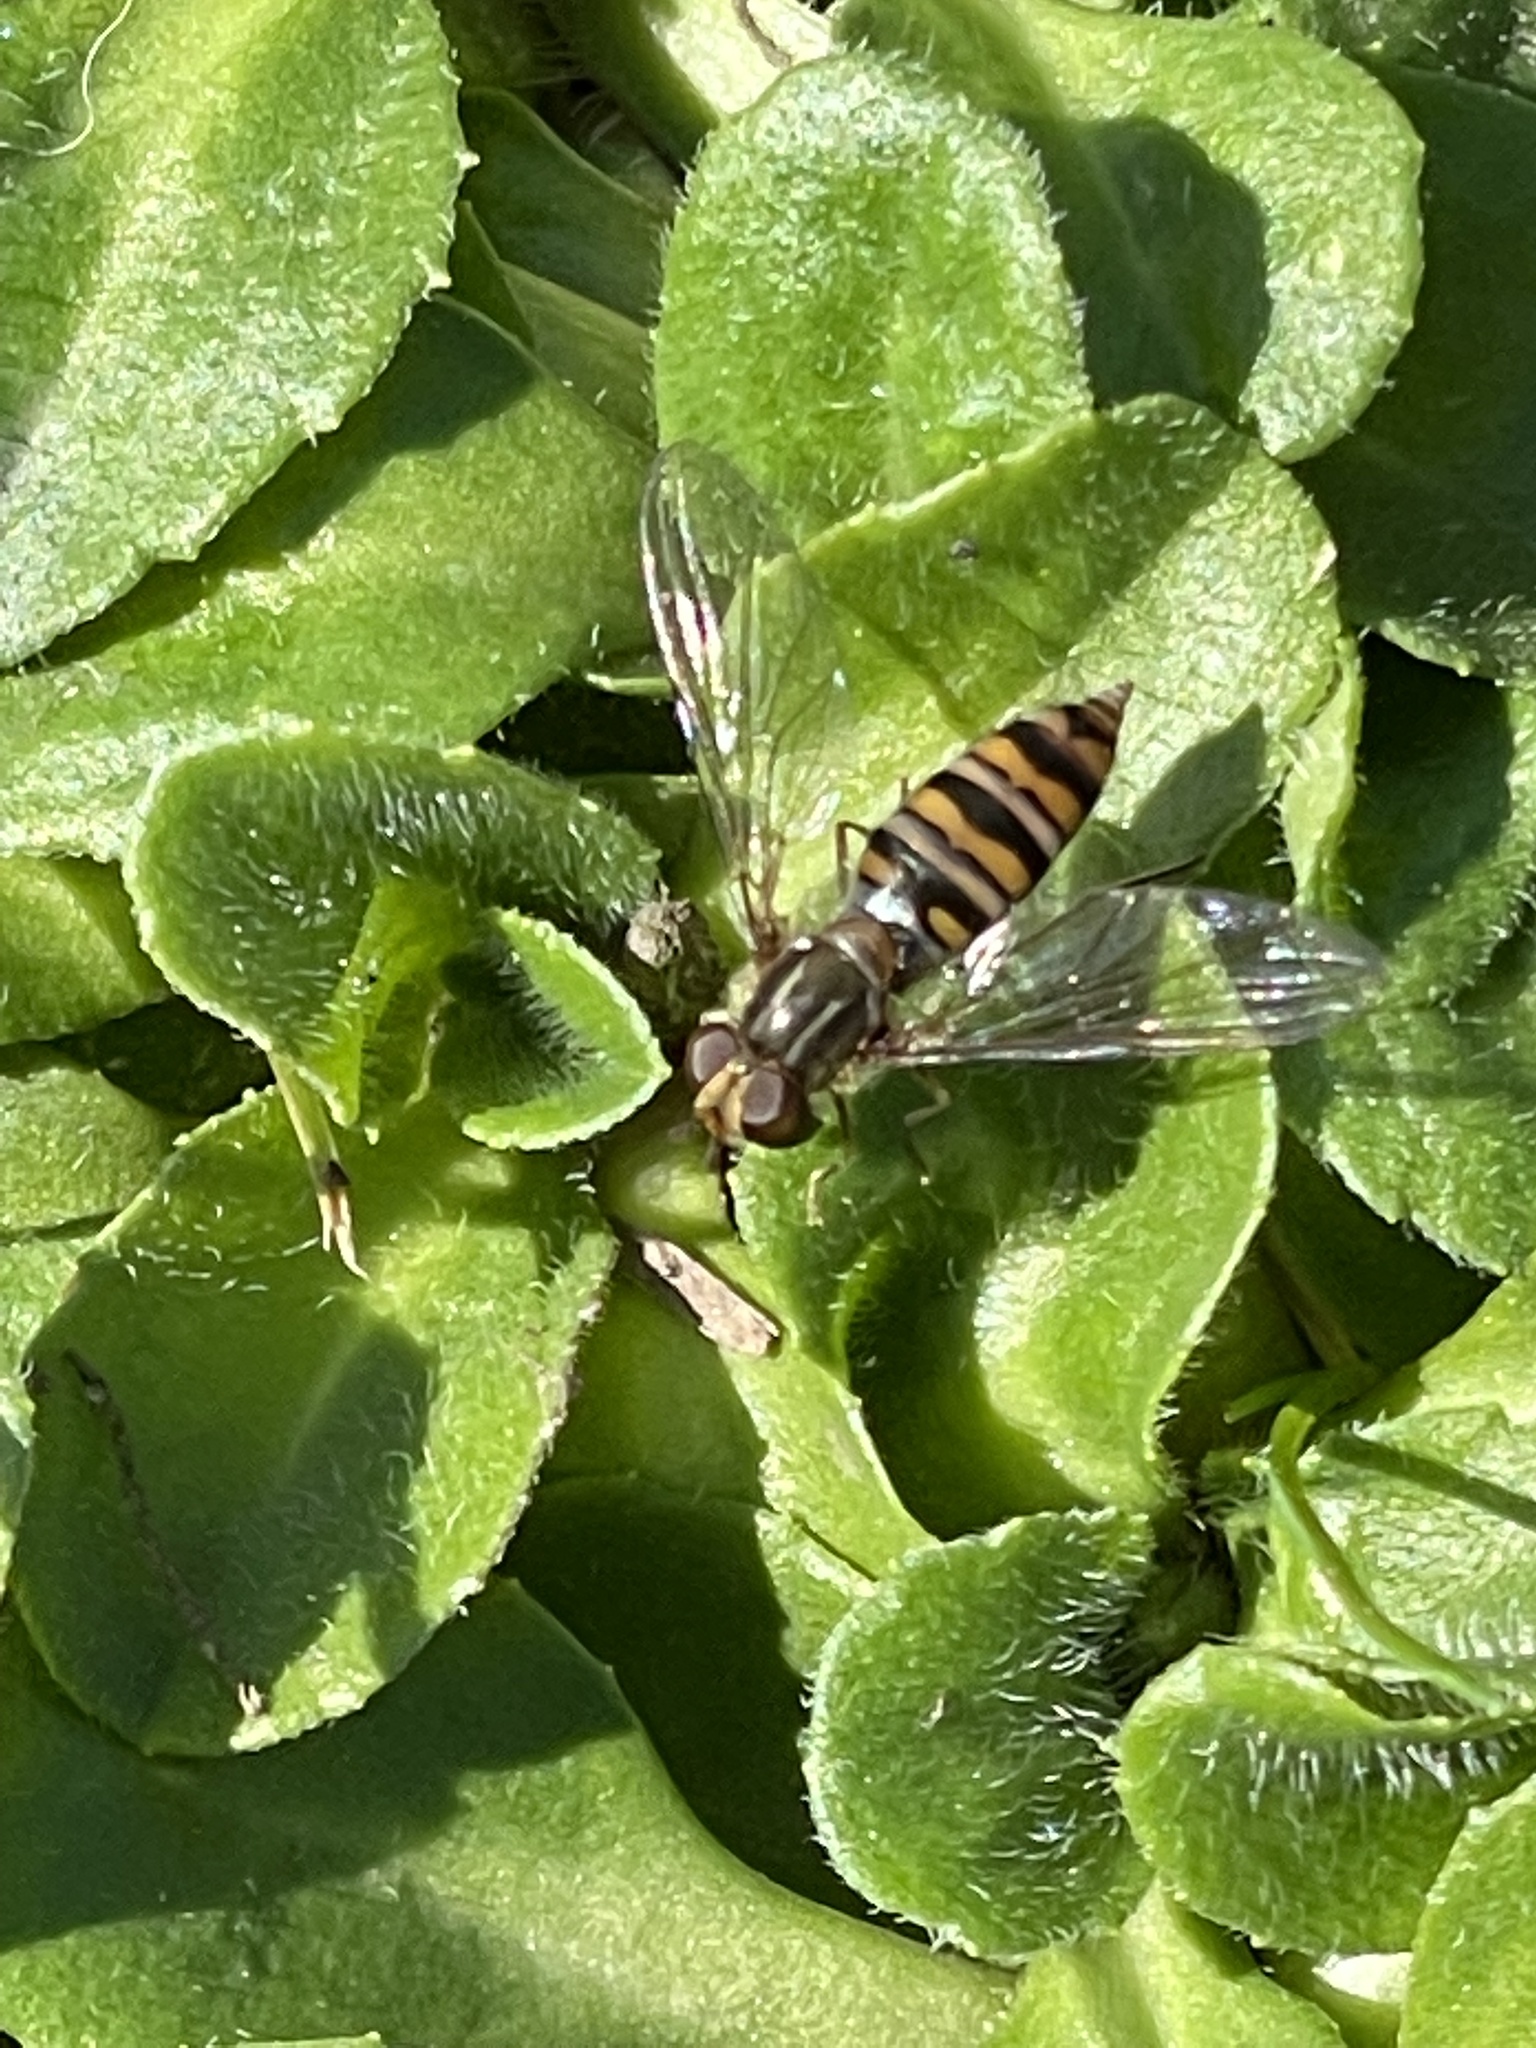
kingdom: Animalia
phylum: Arthropoda
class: Insecta
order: Diptera
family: Syrphidae
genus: Episyrphus
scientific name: Episyrphus balteatus
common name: Marmalade hoverfly
